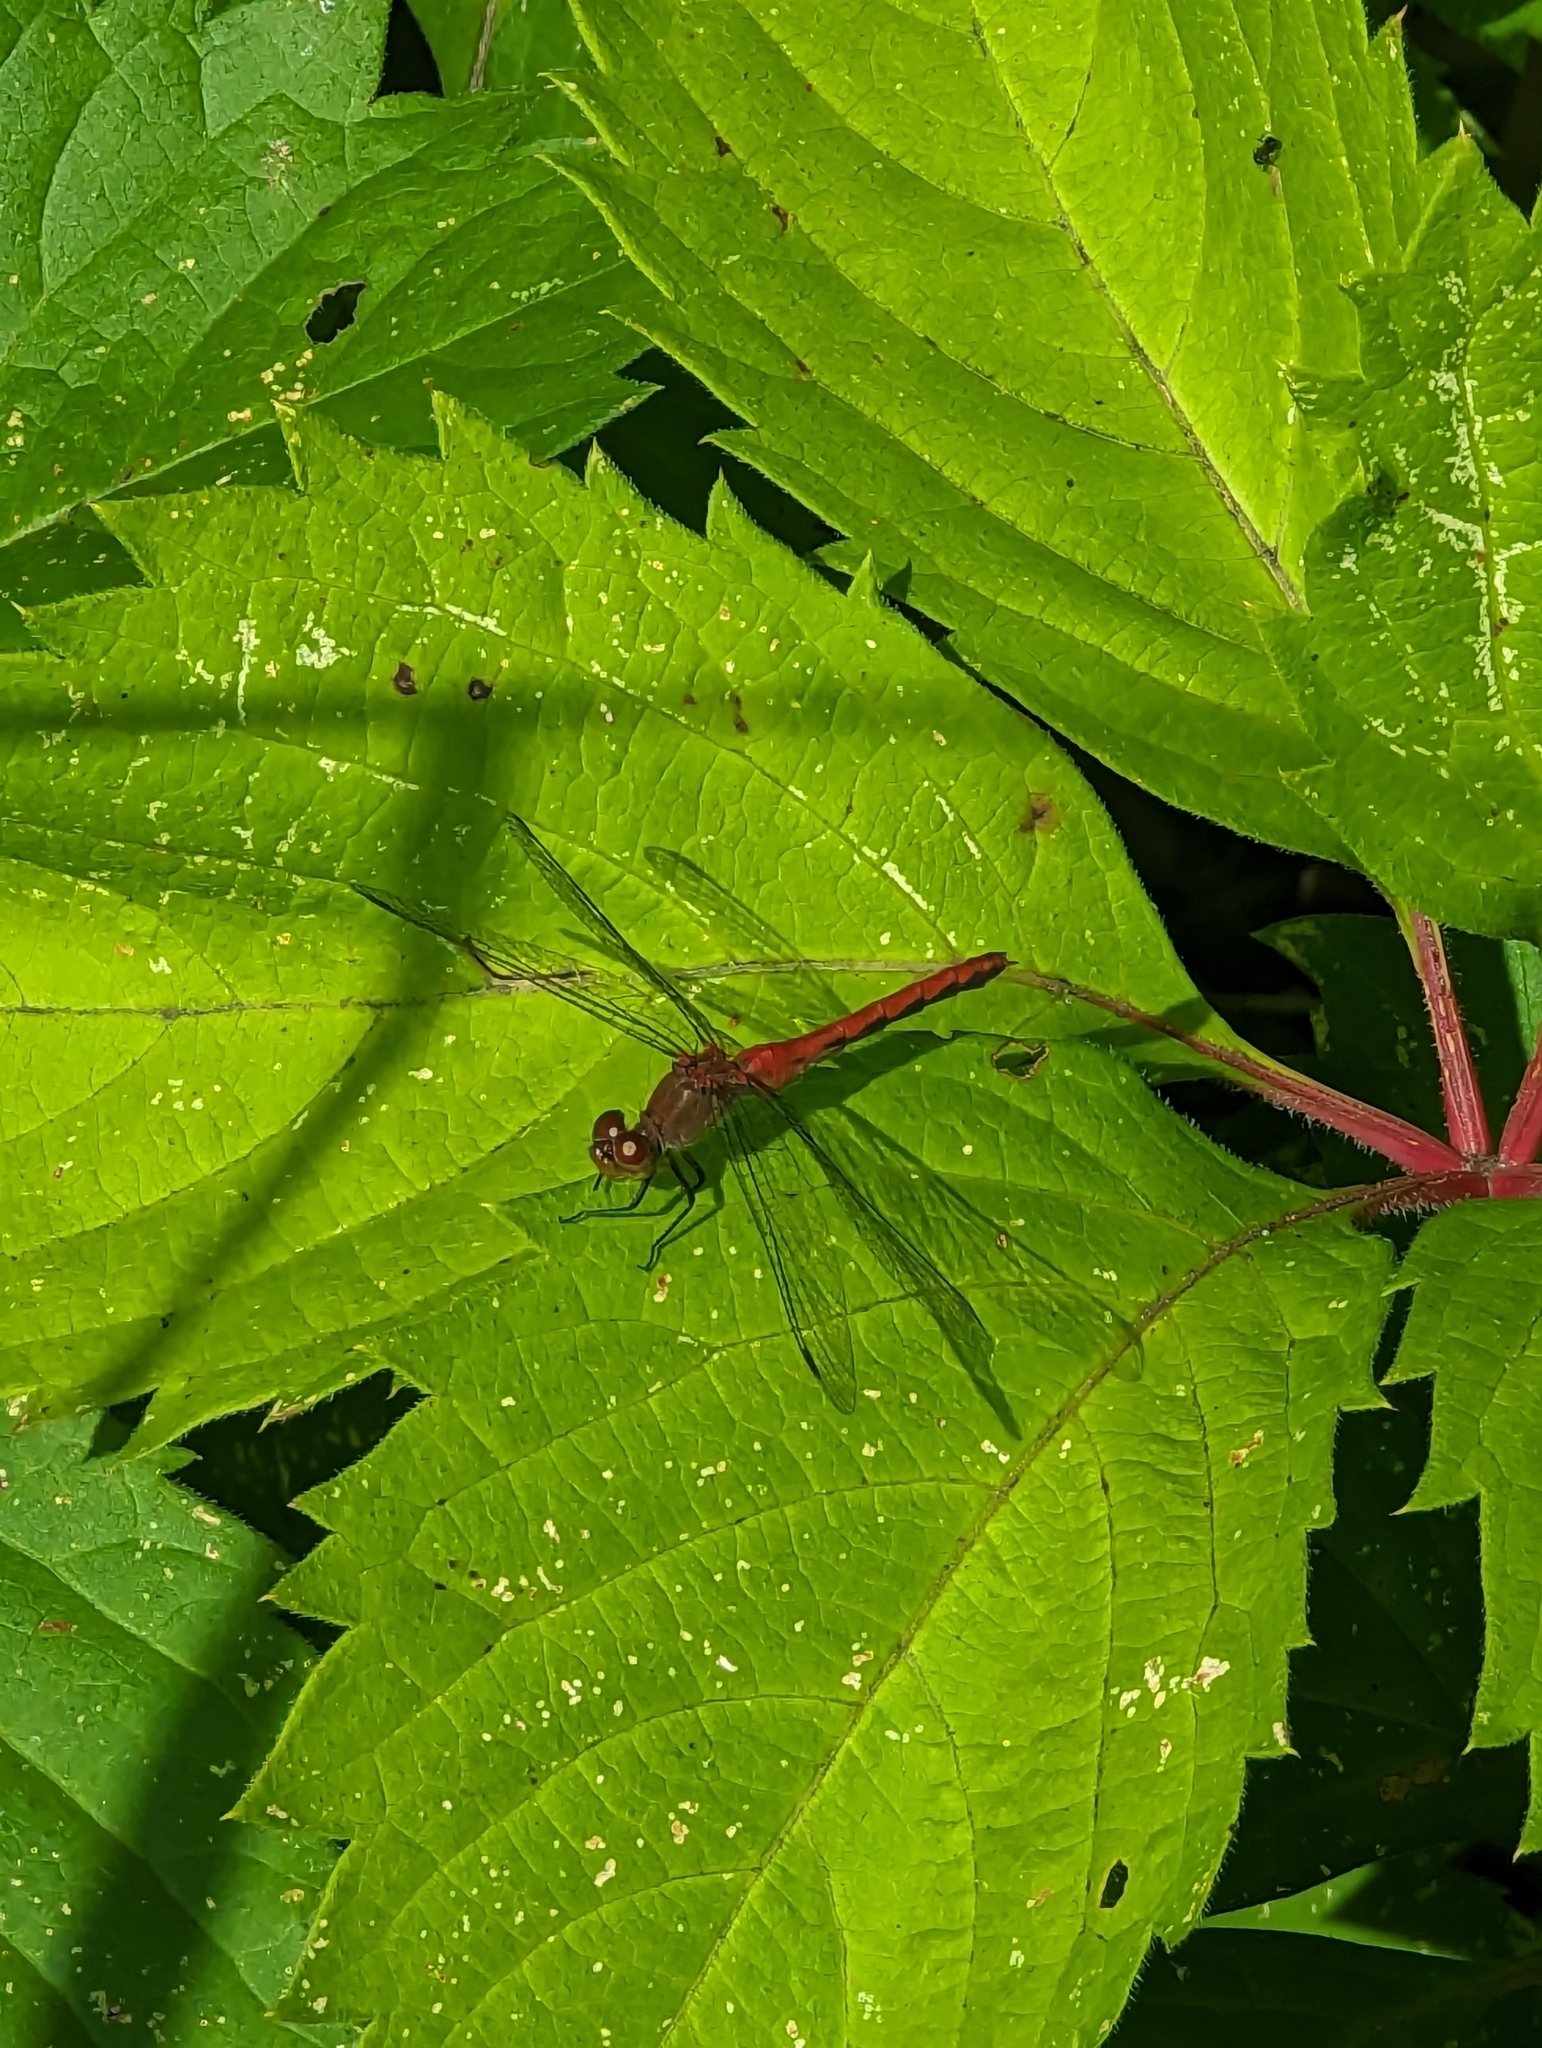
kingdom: Animalia
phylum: Arthropoda
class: Insecta
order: Odonata
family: Libellulidae
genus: Sympetrum
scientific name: Sympetrum
